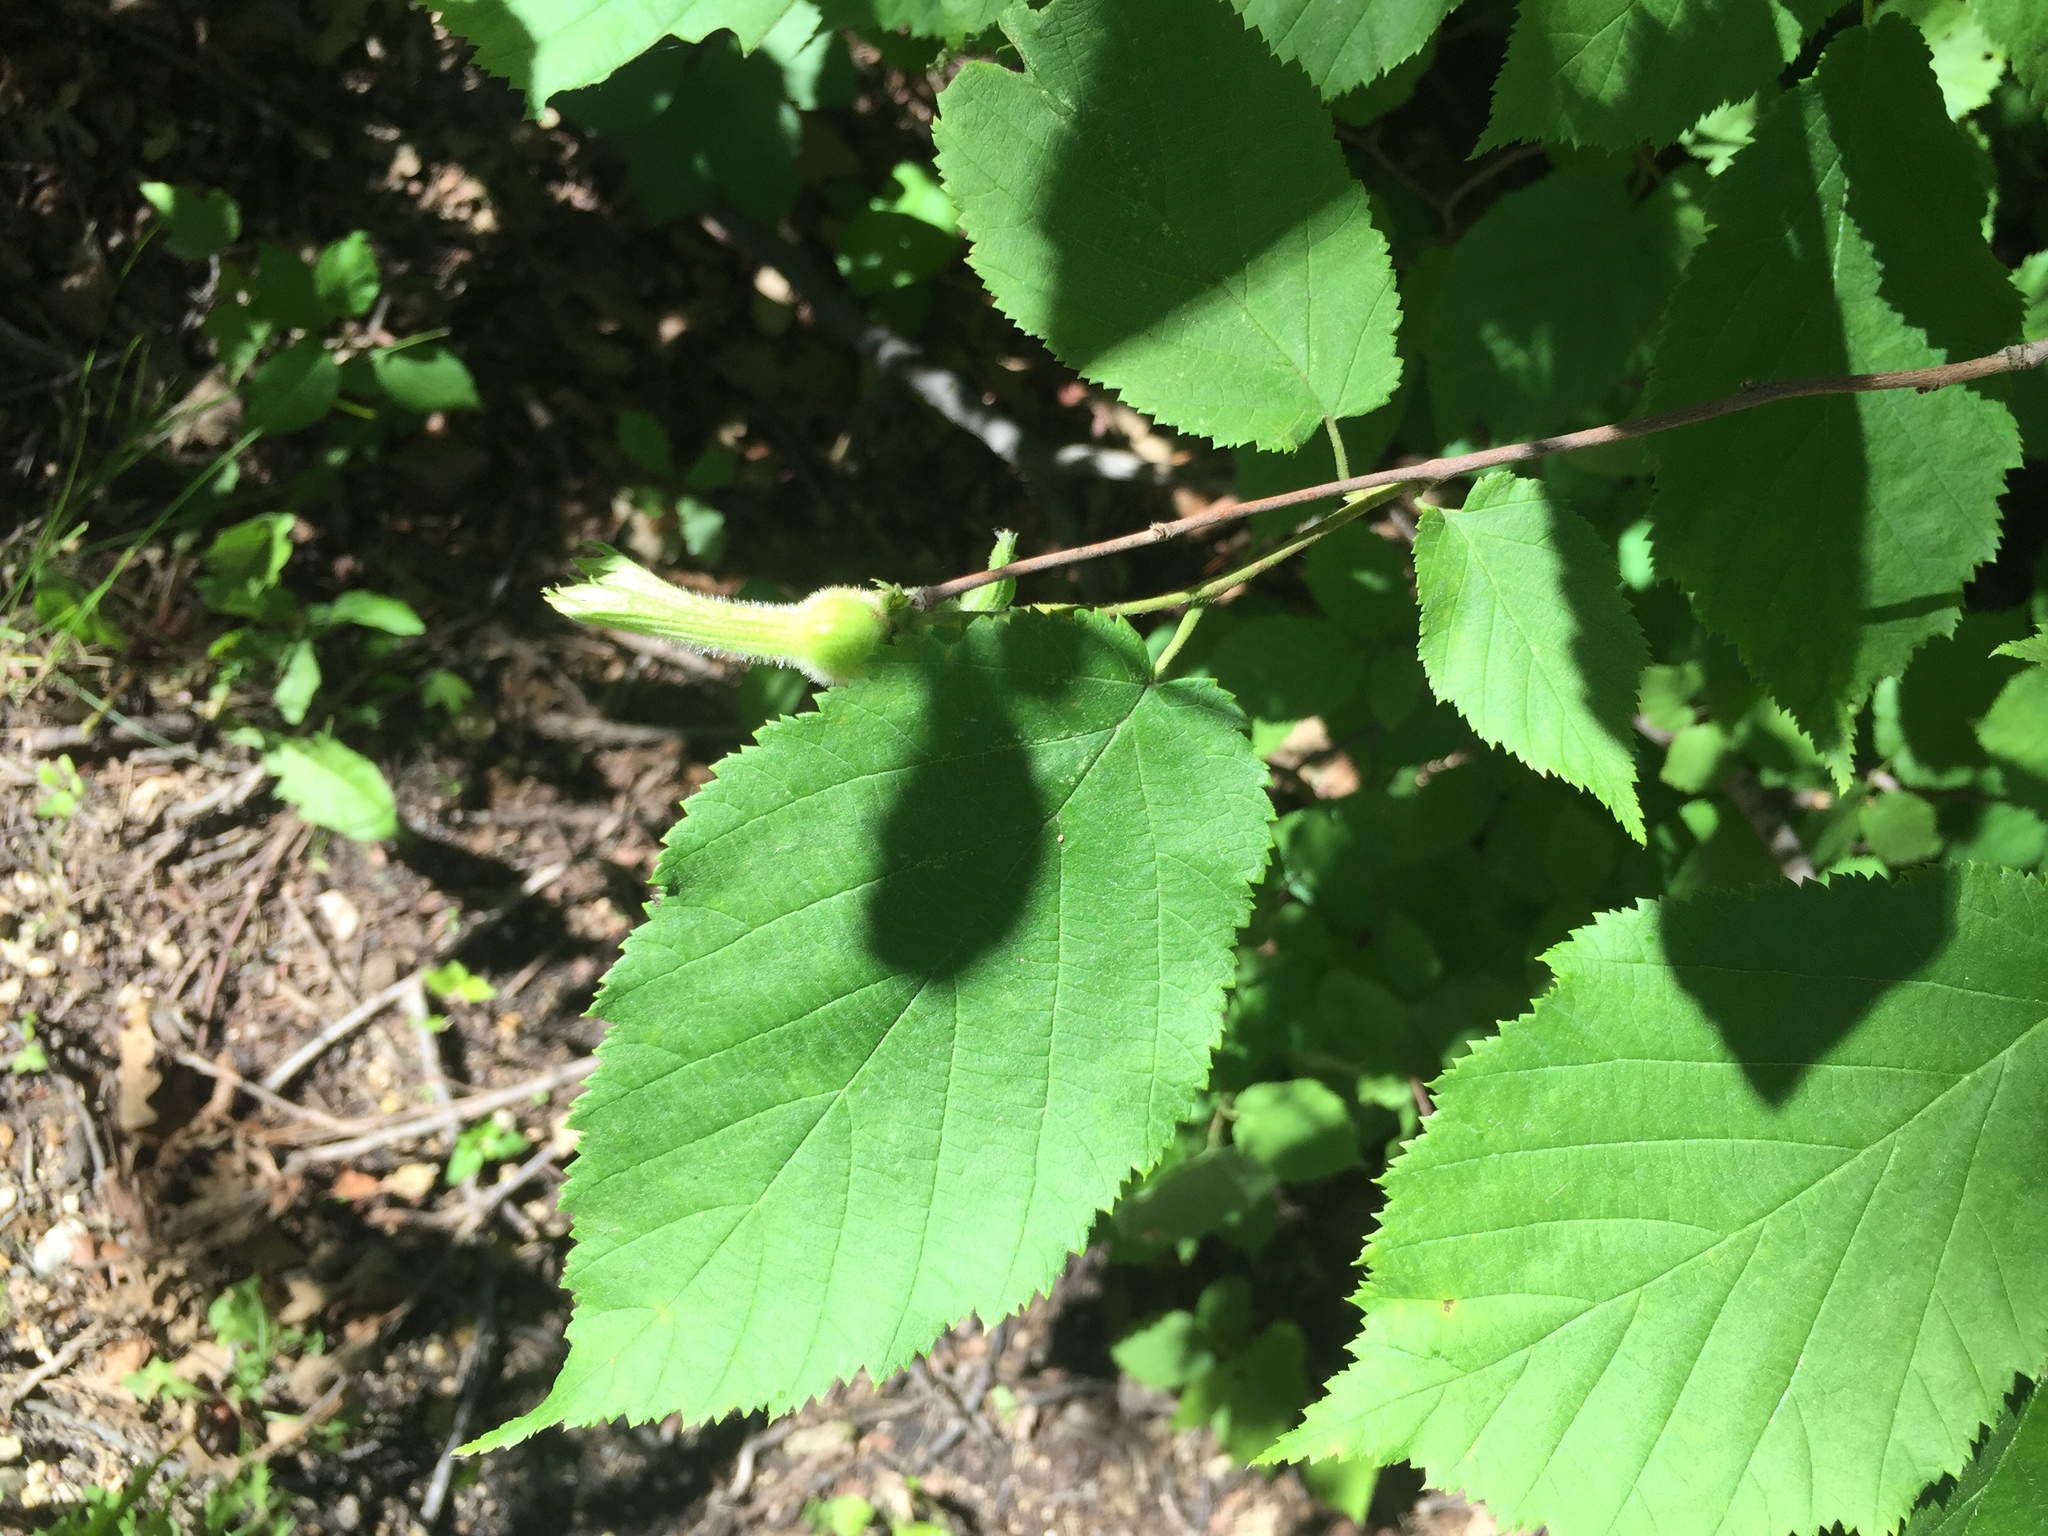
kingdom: Plantae
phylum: Tracheophyta
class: Magnoliopsida
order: Fagales
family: Betulaceae
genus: Corylus
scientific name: Corylus cornuta
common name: Beaked hazel
